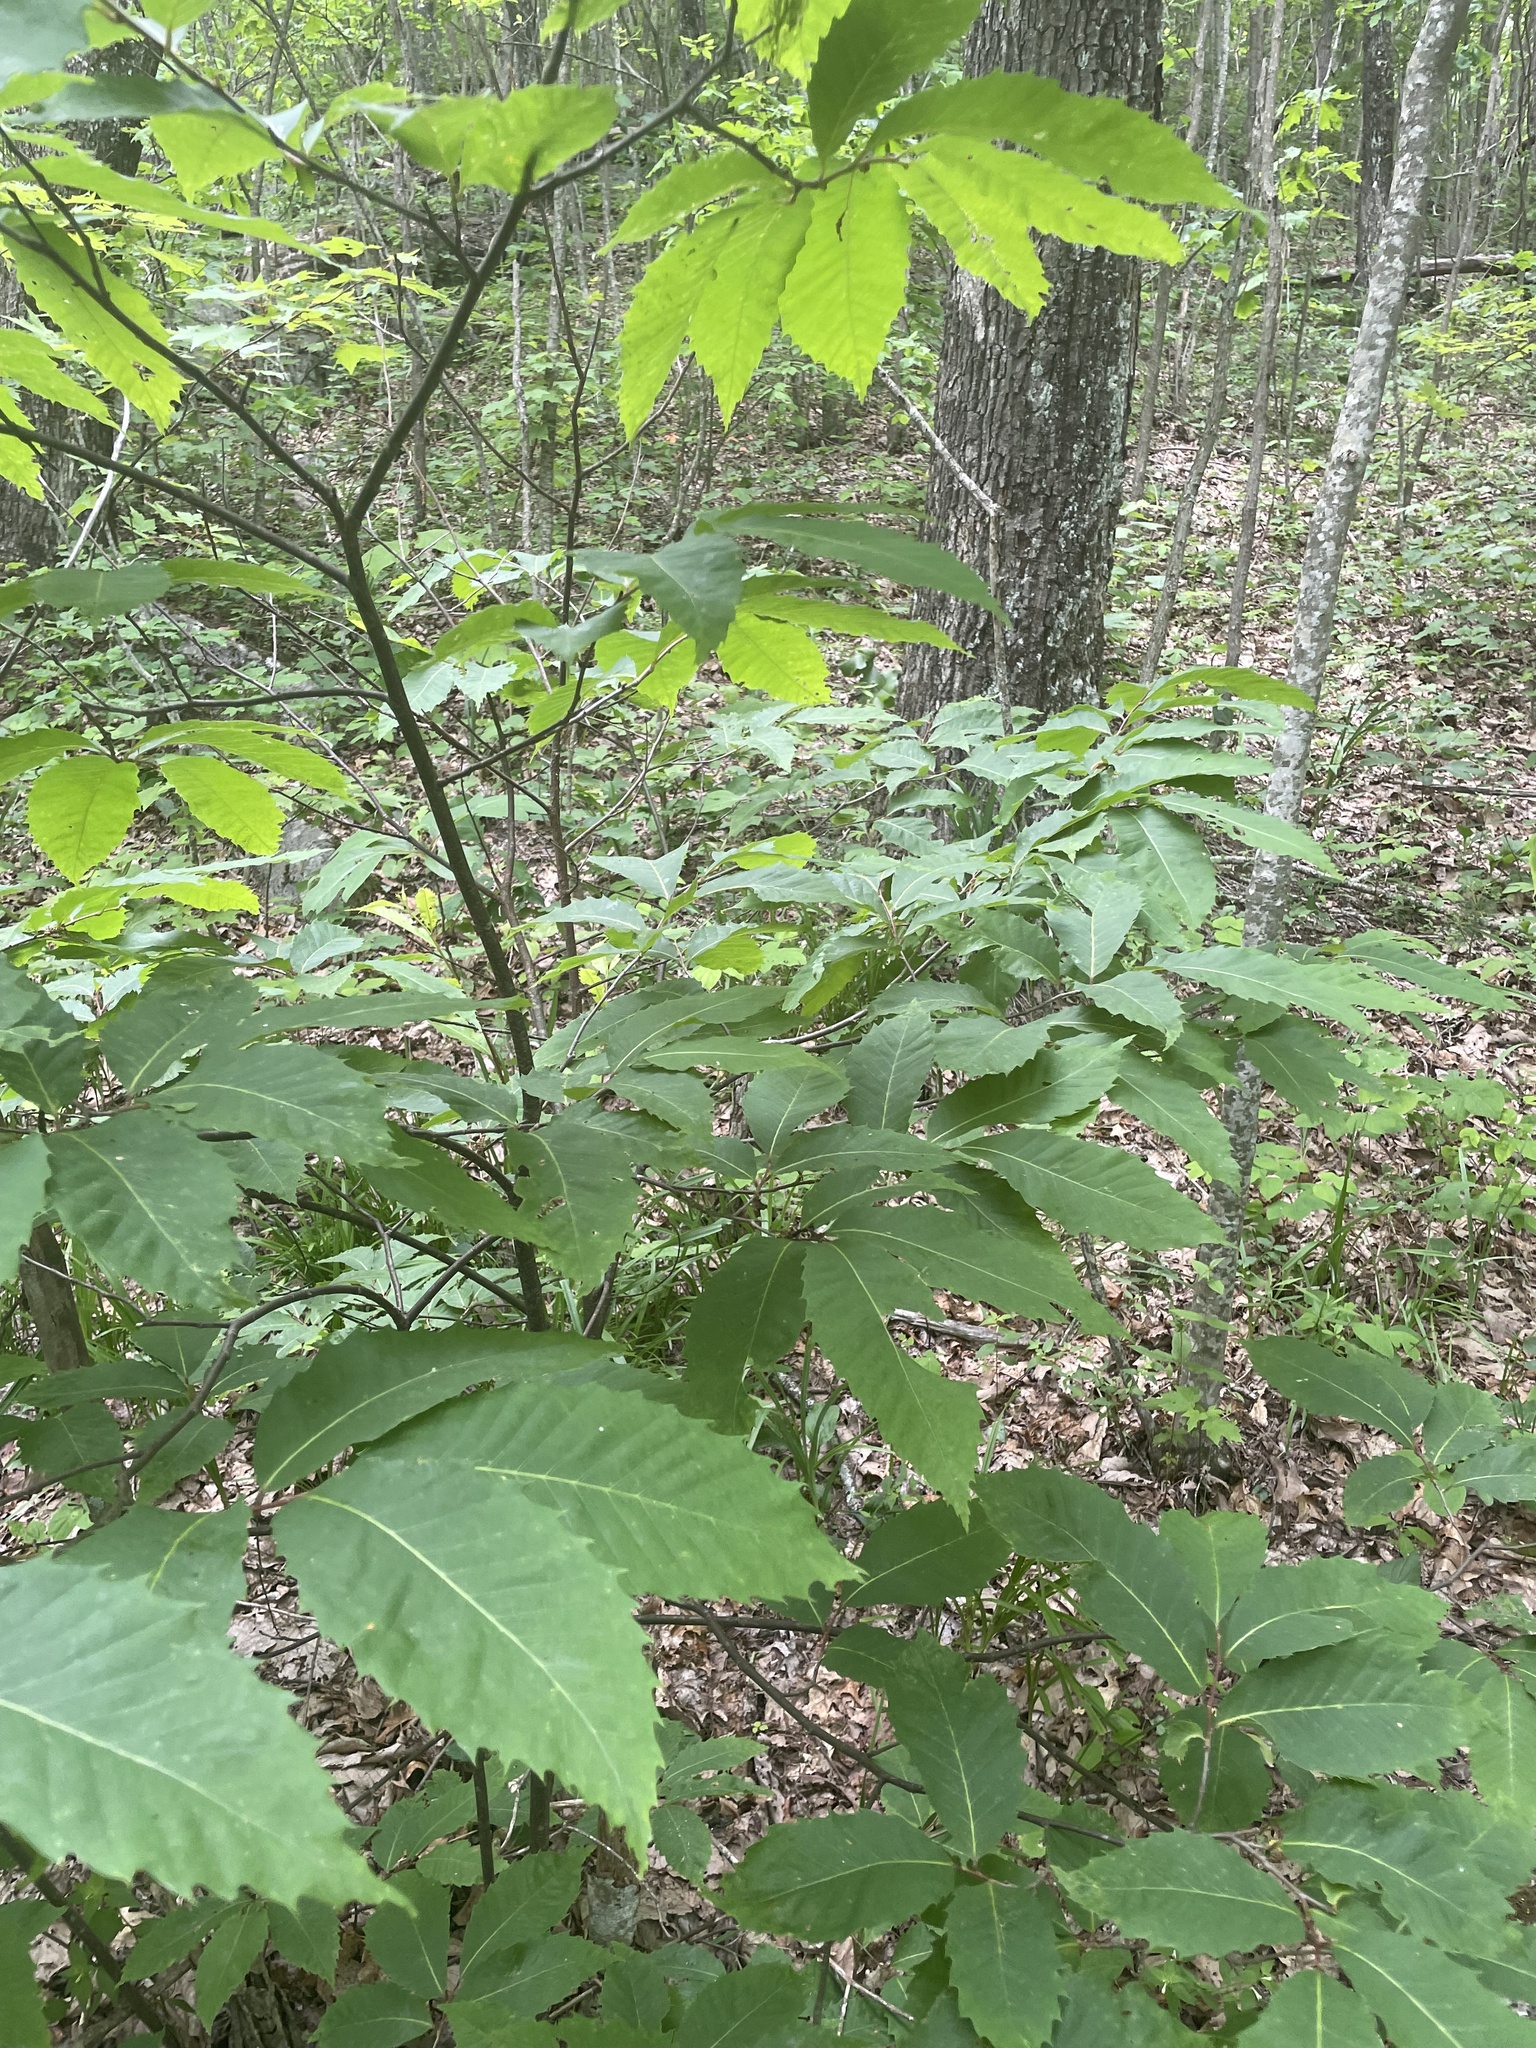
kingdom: Plantae
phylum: Tracheophyta
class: Magnoliopsida
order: Fagales
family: Fagaceae
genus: Castanea
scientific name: Castanea dentata
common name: American chestnut
